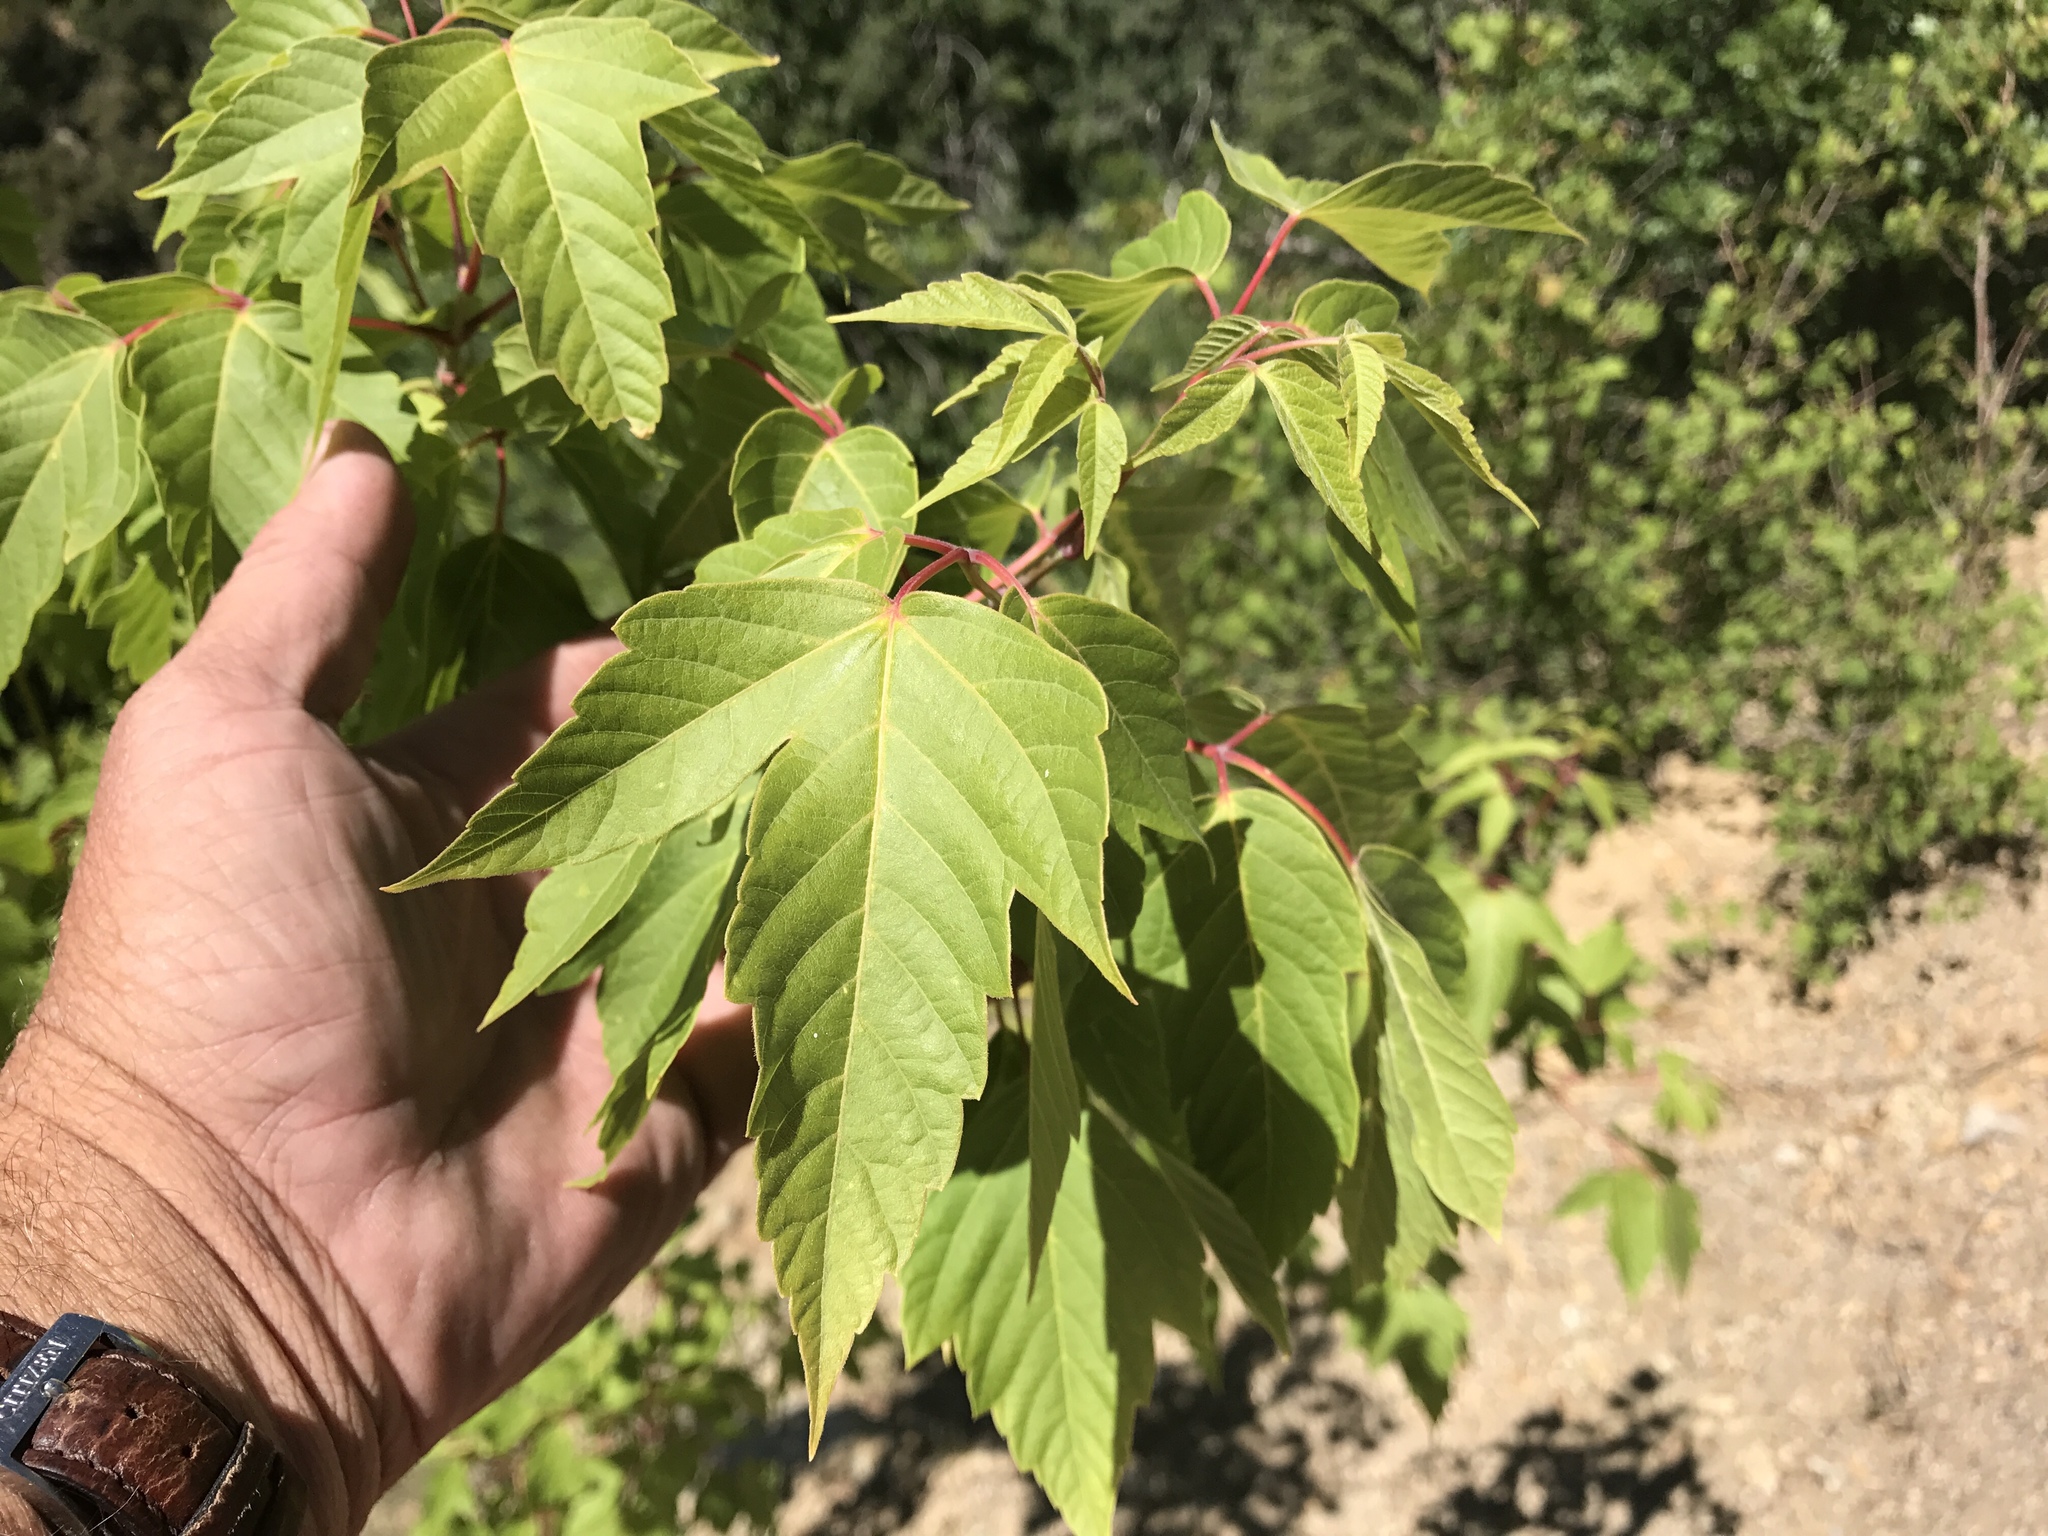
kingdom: Plantae
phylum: Tracheophyta
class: Magnoliopsida
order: Sapindales
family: Sapindaceae
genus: Acer
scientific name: Acer negundo
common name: Ashleaf maple
